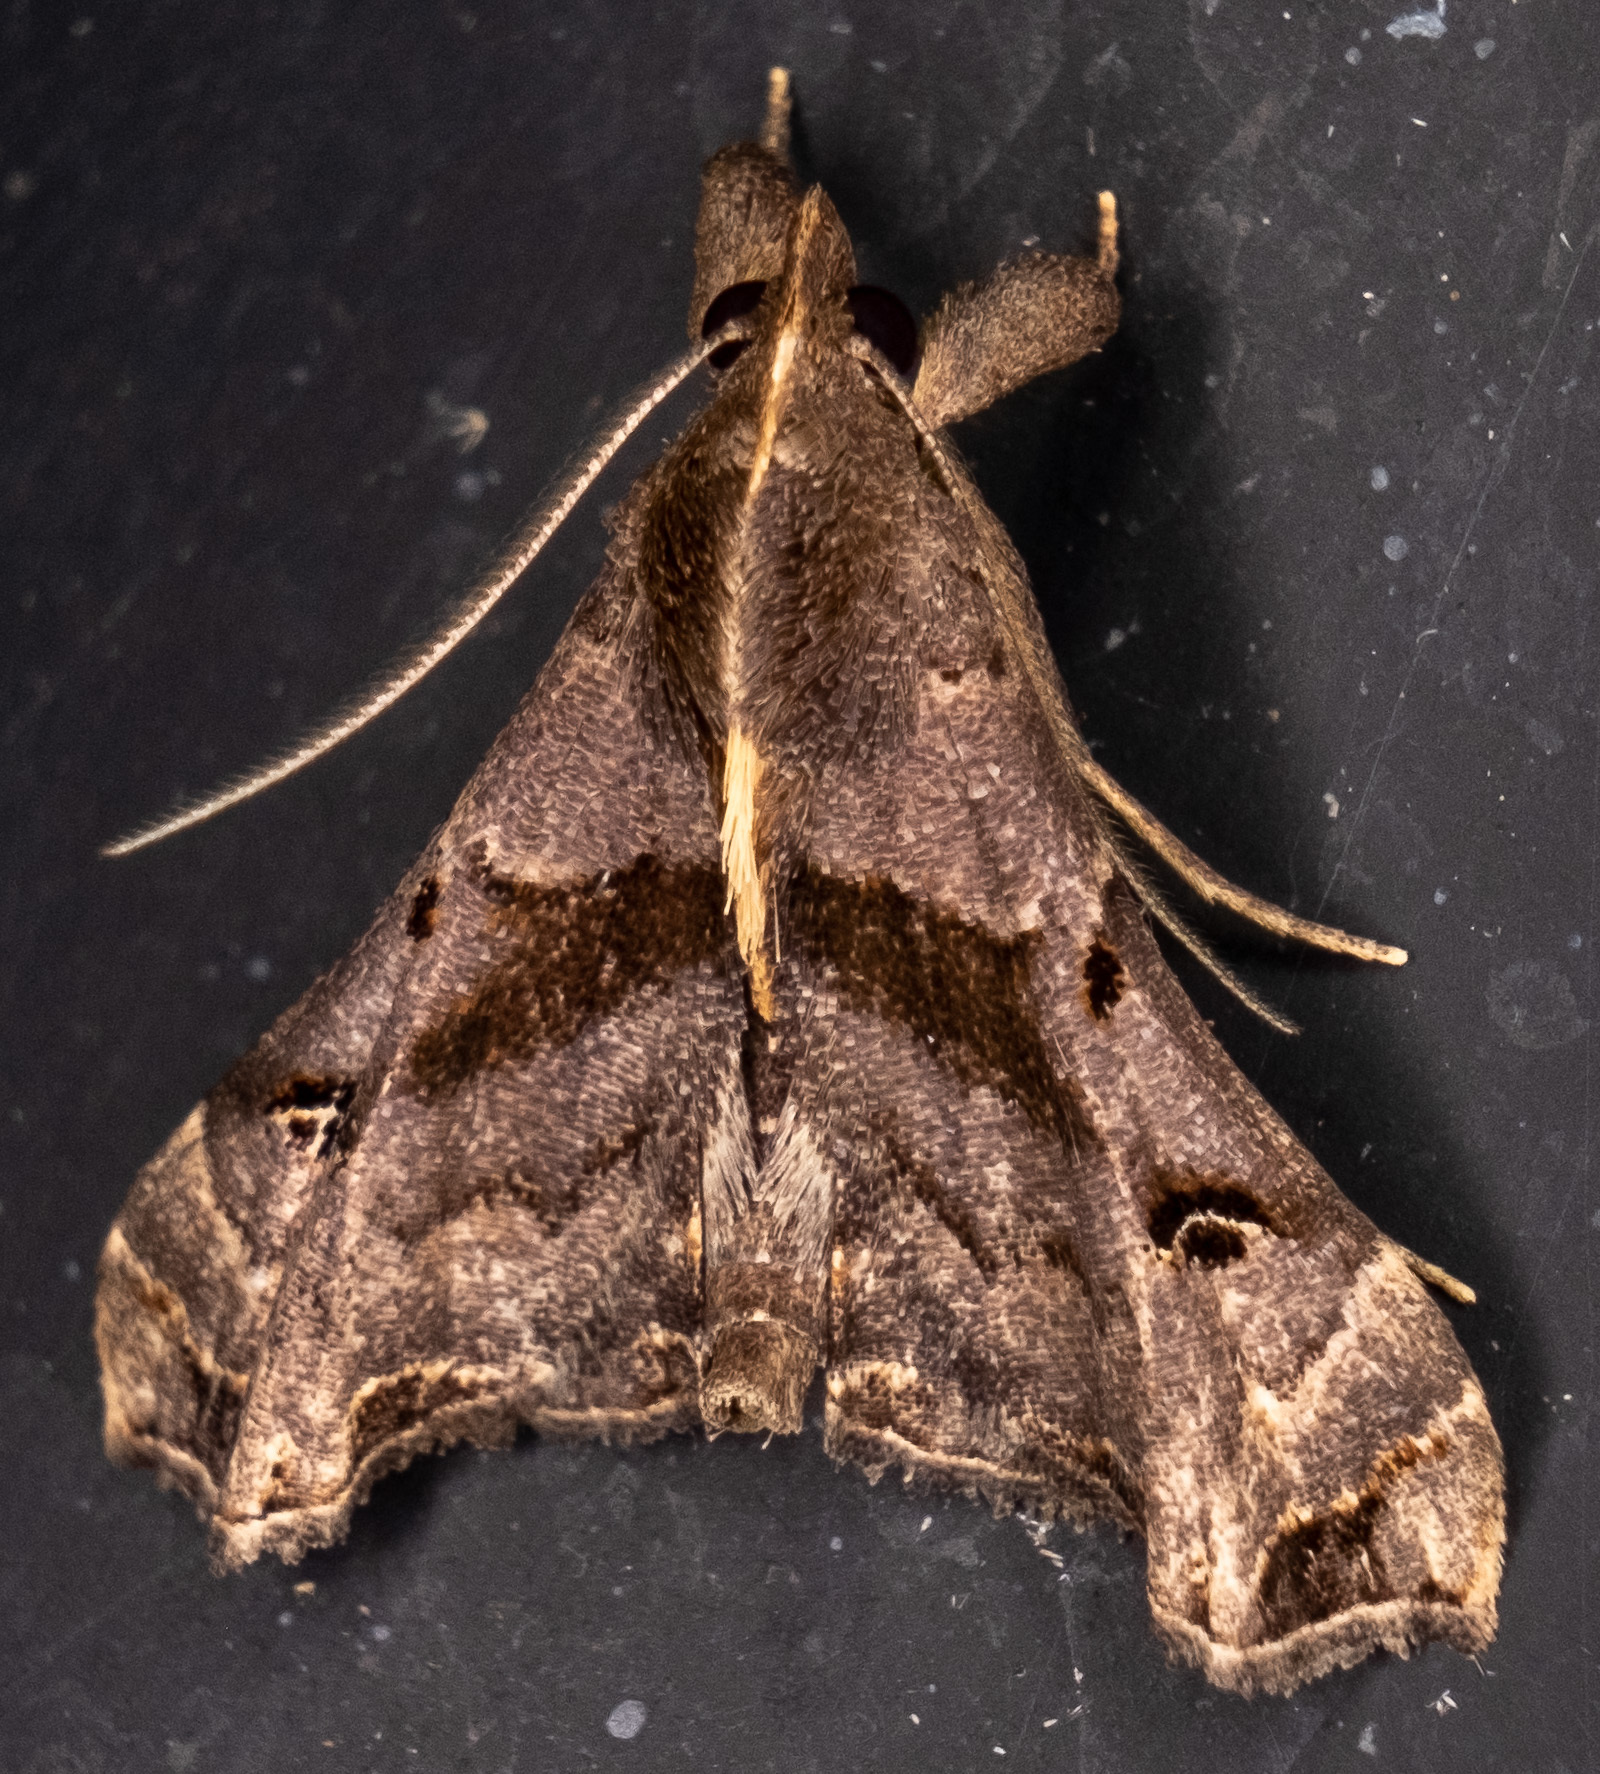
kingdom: Animalia
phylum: Arthropoda
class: Insecta
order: Lepidoptera
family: Erebidae
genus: Palthis
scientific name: Palthis asopialis
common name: Faint-spotted palthis moth
